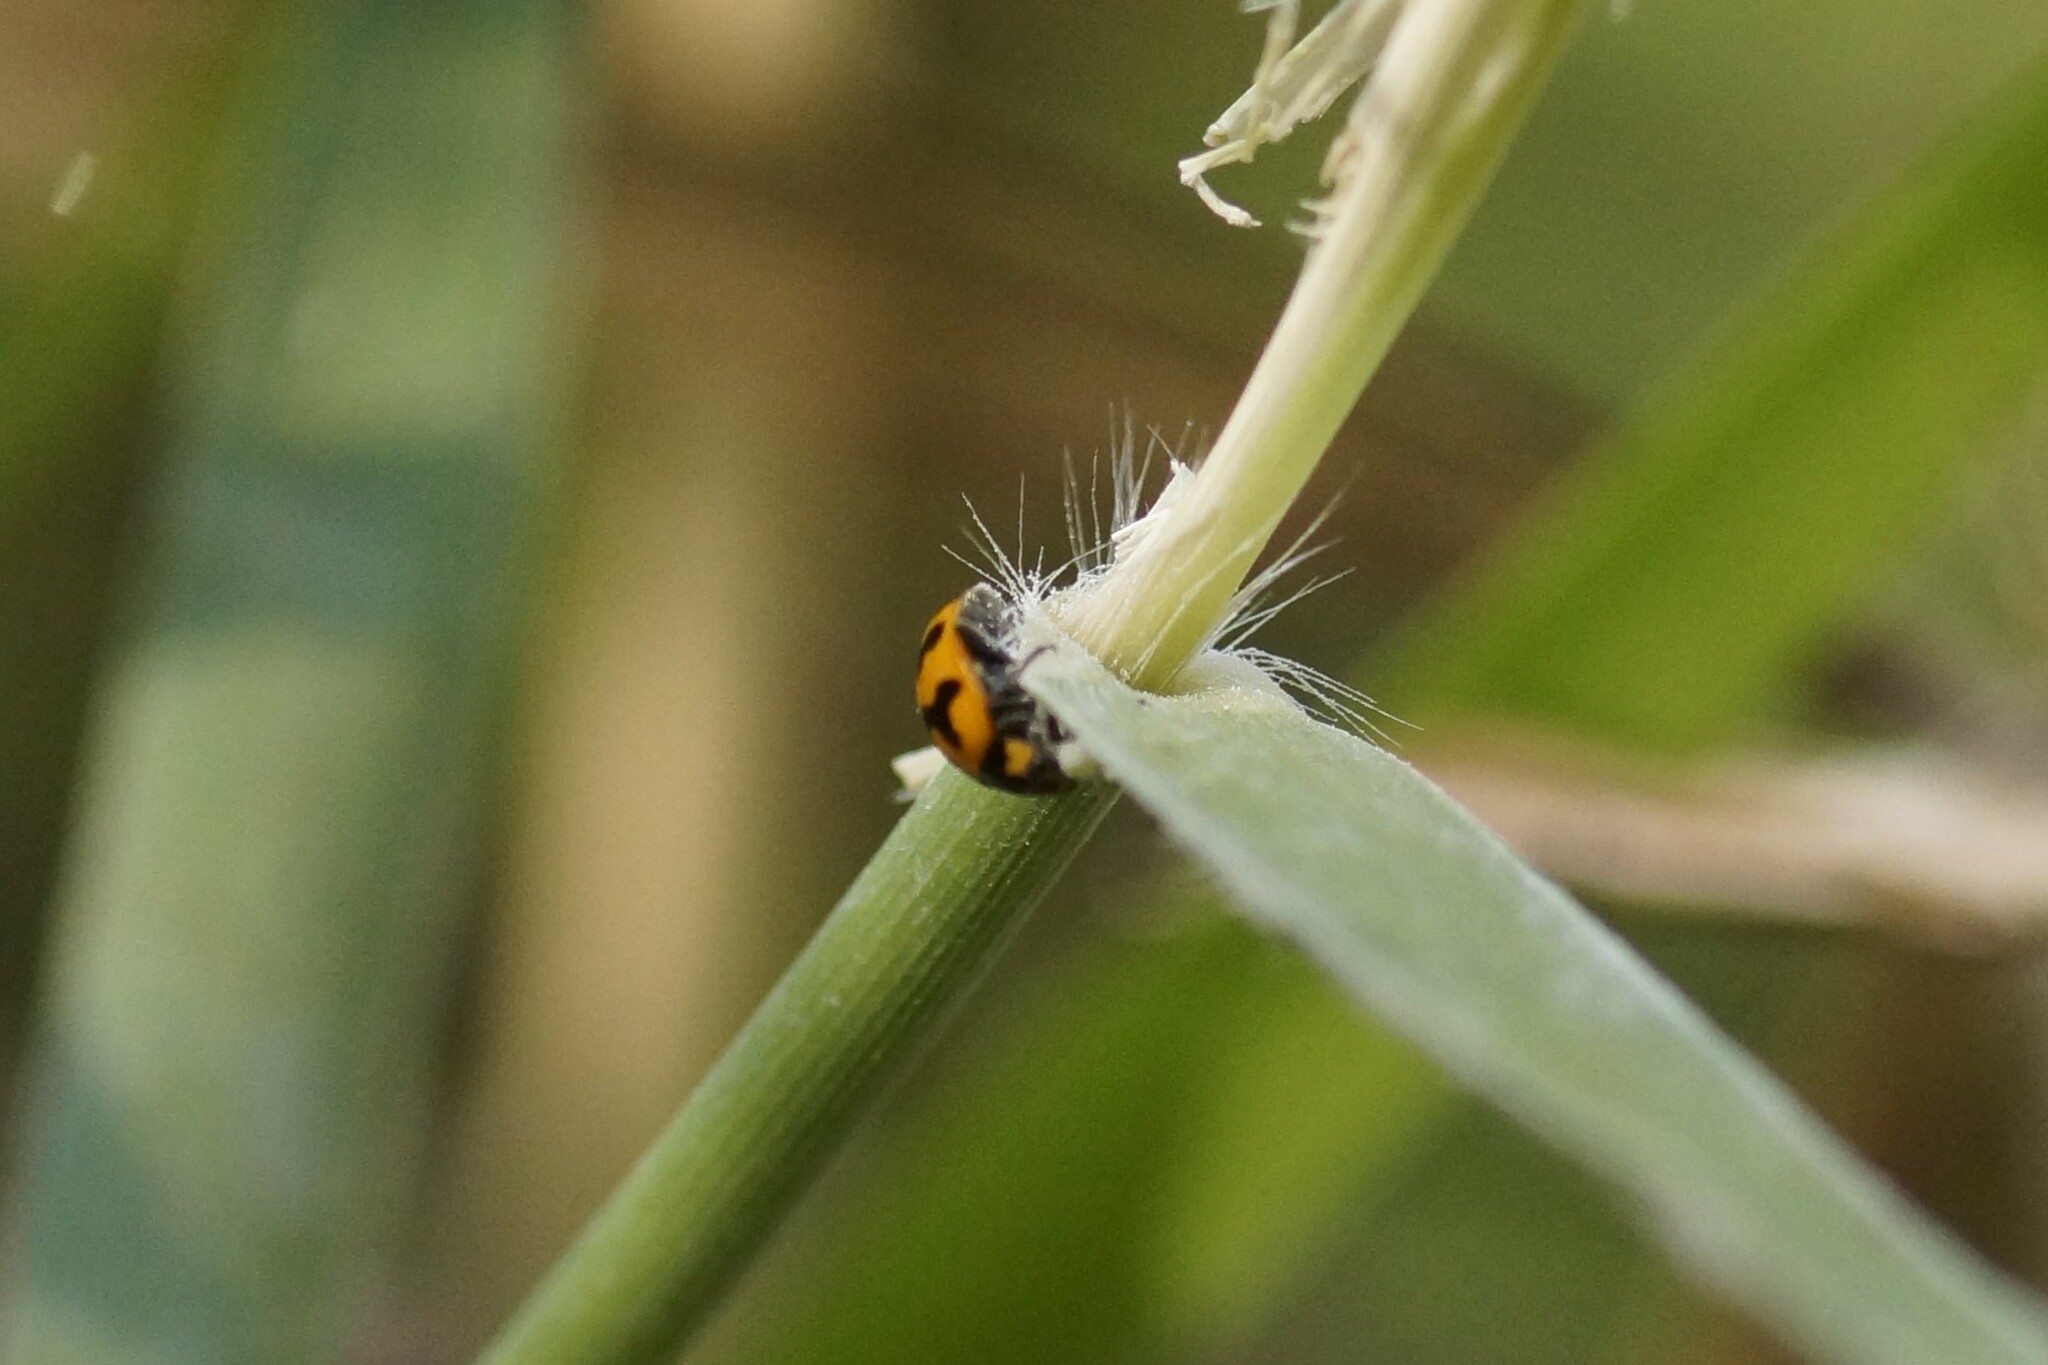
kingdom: Animalia
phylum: Arthropoda
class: Insecta
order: Coleoptera
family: Coccinellidae
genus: Coccinella
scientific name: Coccinella transversalis
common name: Transverse lady beetle
